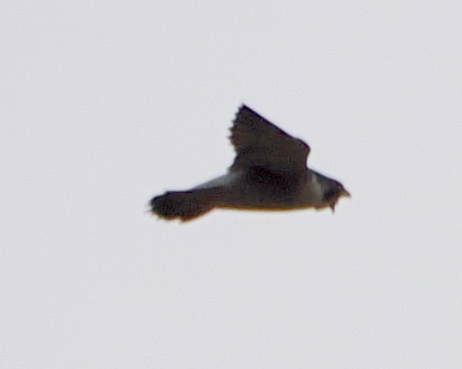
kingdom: Animalia
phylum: Chordata
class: Aves
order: Falconiformes
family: Falconidae
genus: Falco
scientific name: Falco peregrinus
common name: Peregrine falcon
